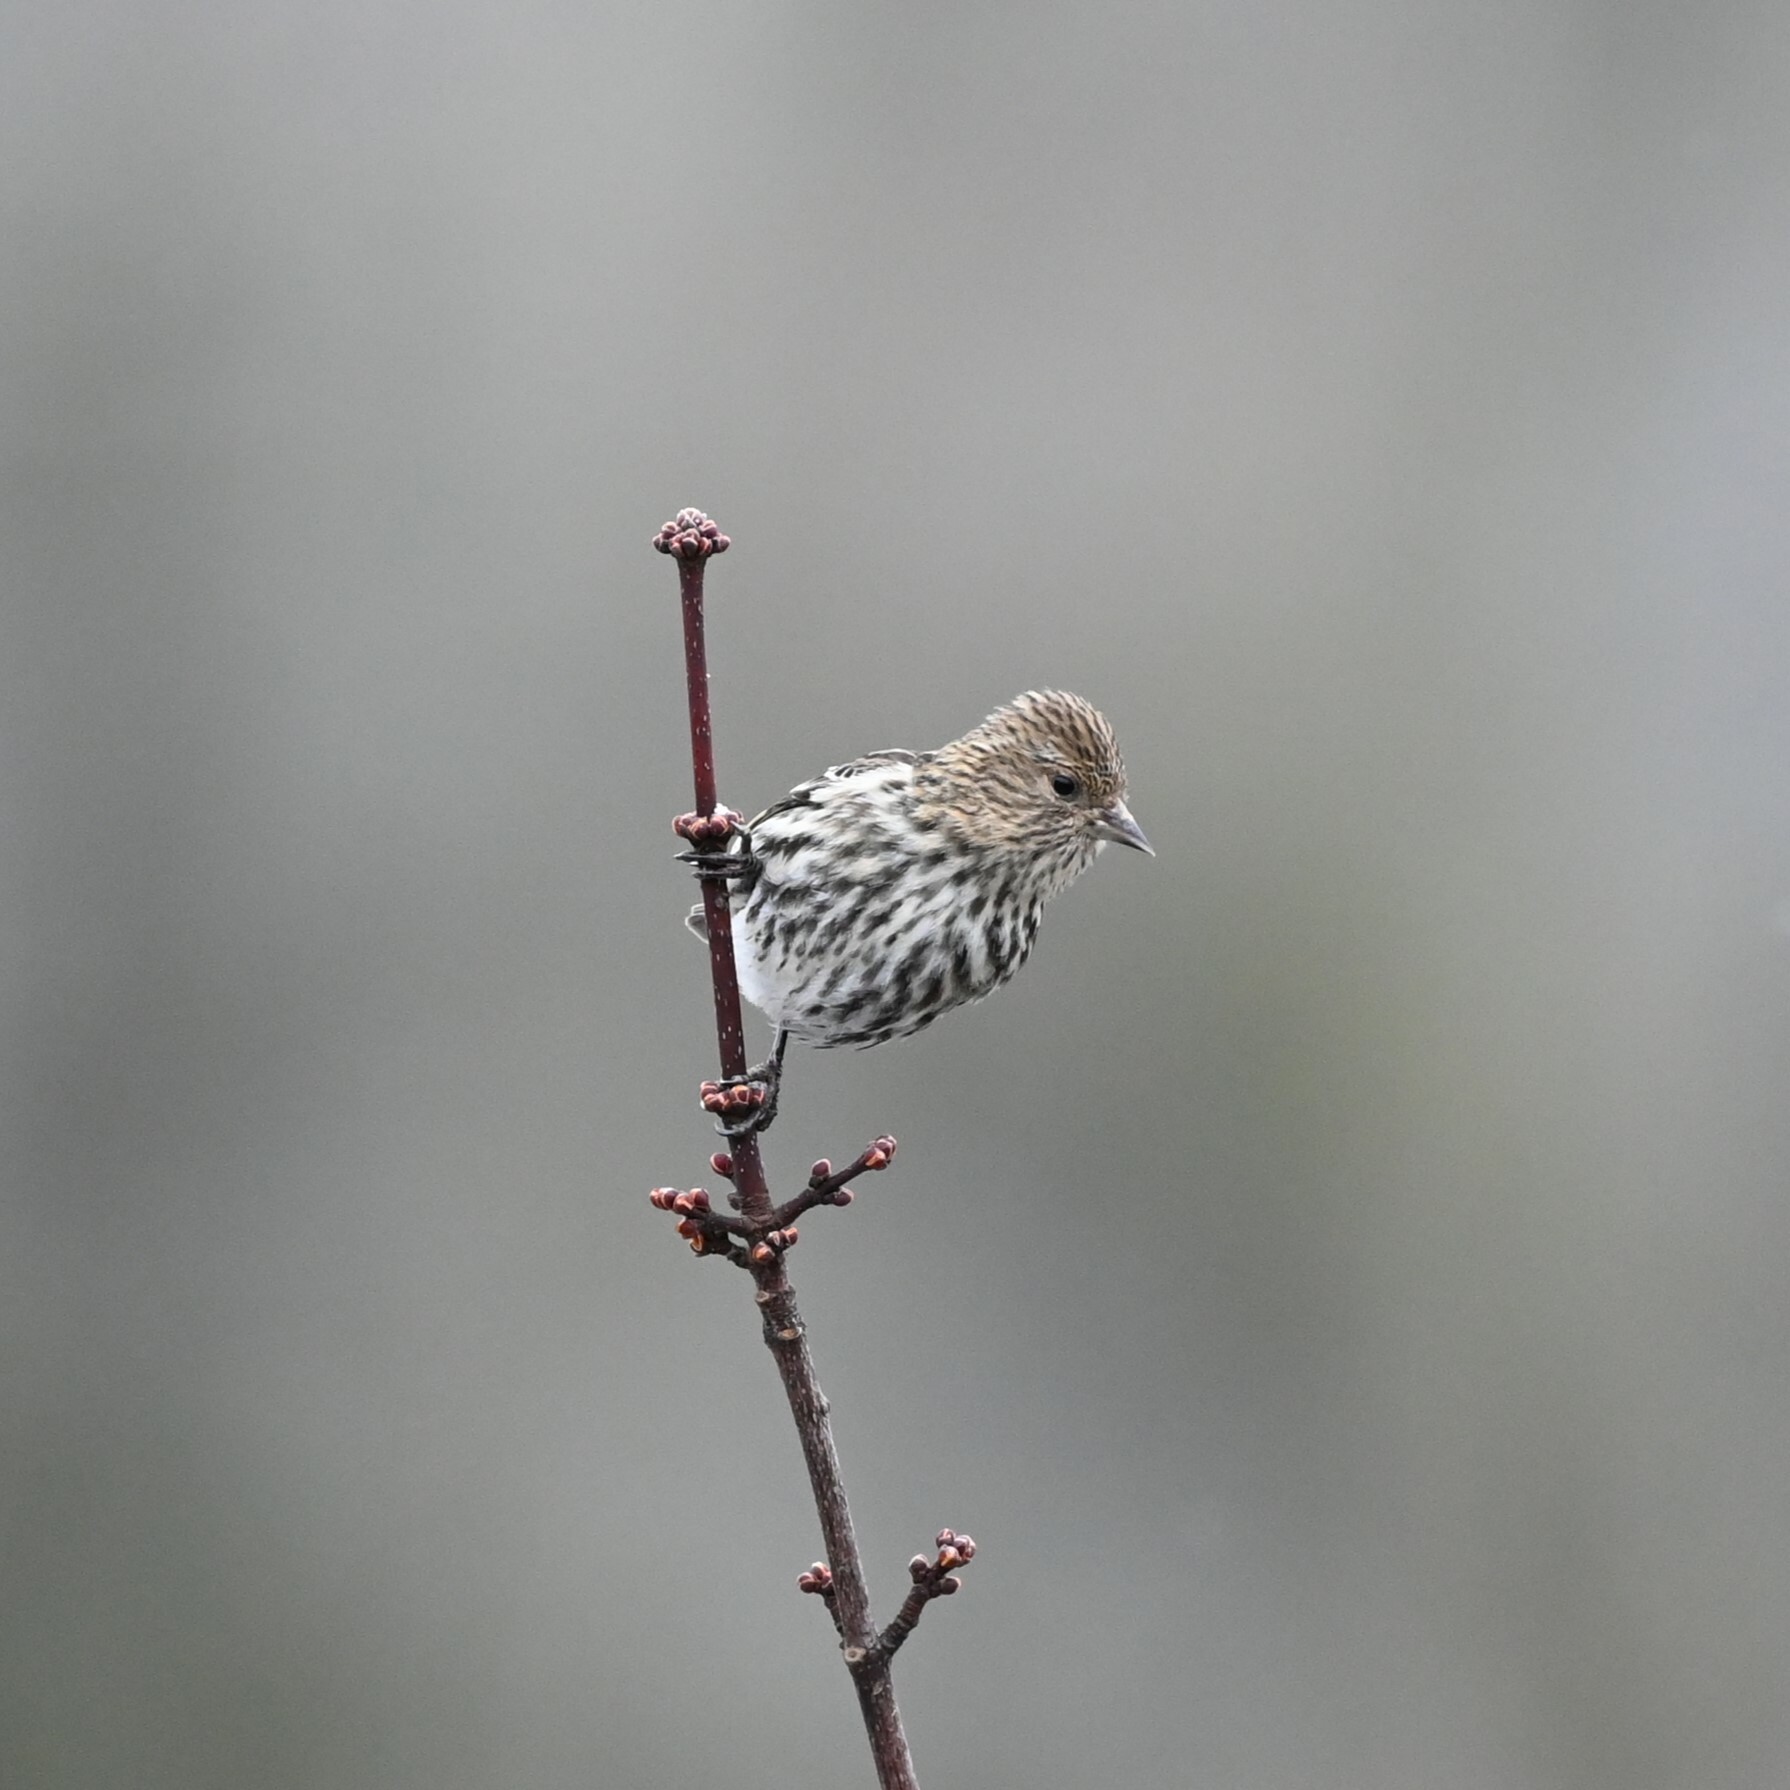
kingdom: Animalia
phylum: Chordata
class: Aves
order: Passeriformes
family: Fringillidae
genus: Spinus
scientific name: Spinus pinus
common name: Pine siskin
